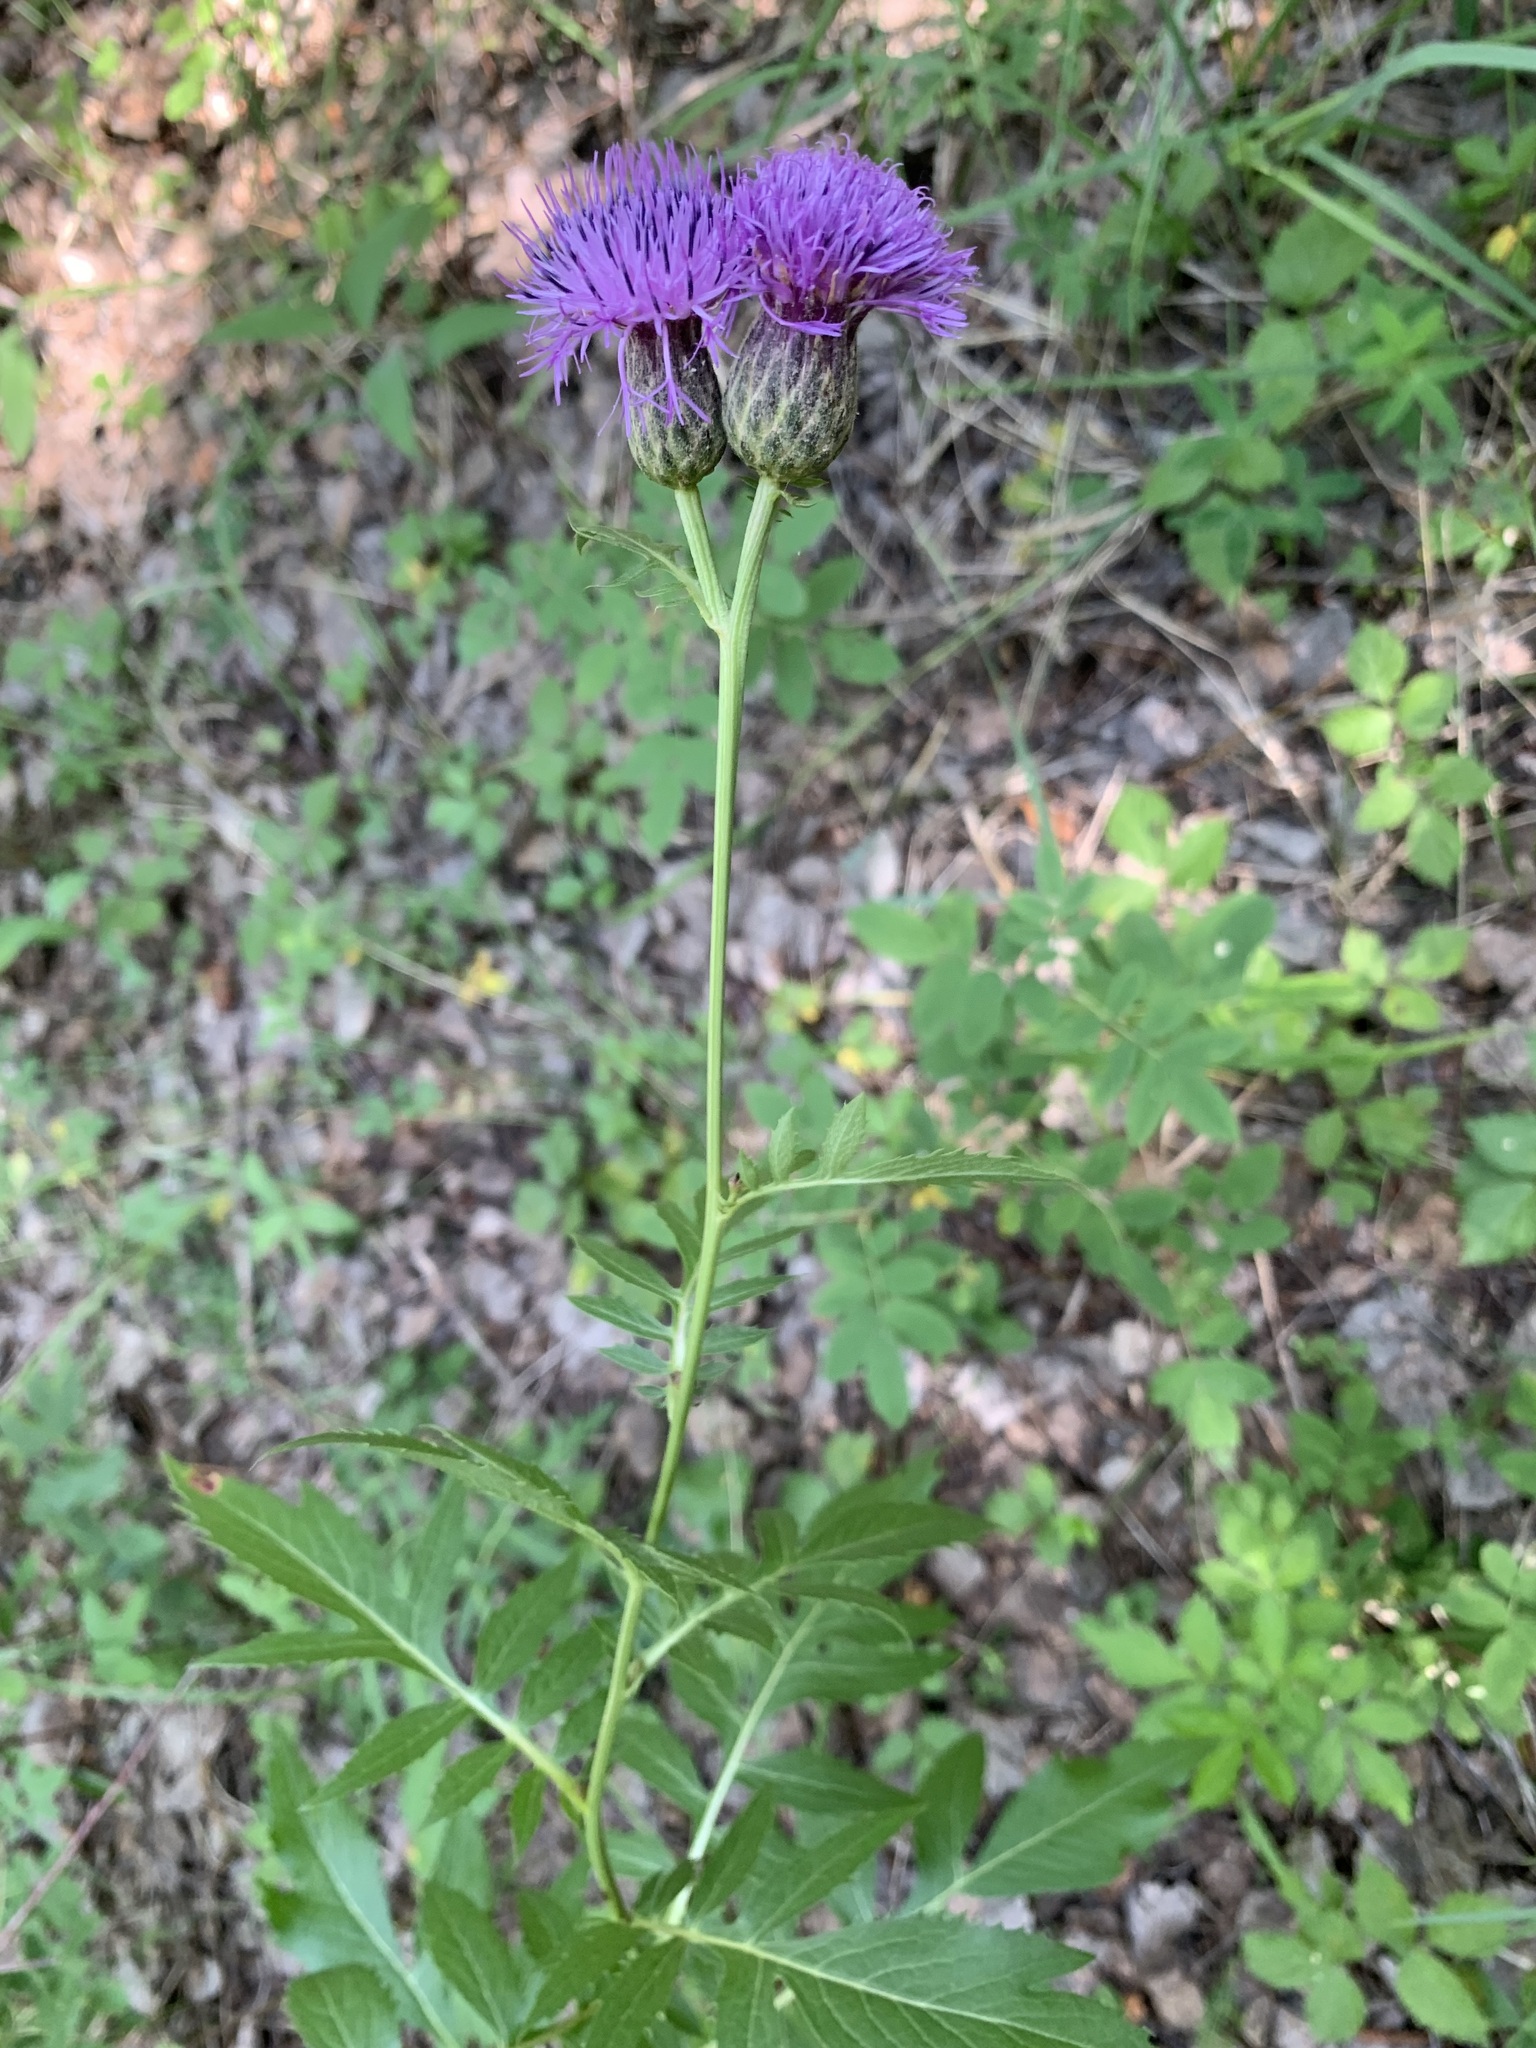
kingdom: Plantae
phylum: Tracheophyta
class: Magnoliopsida
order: Asterales
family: Asteraceae
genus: Serratula
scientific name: Serratula coronata
